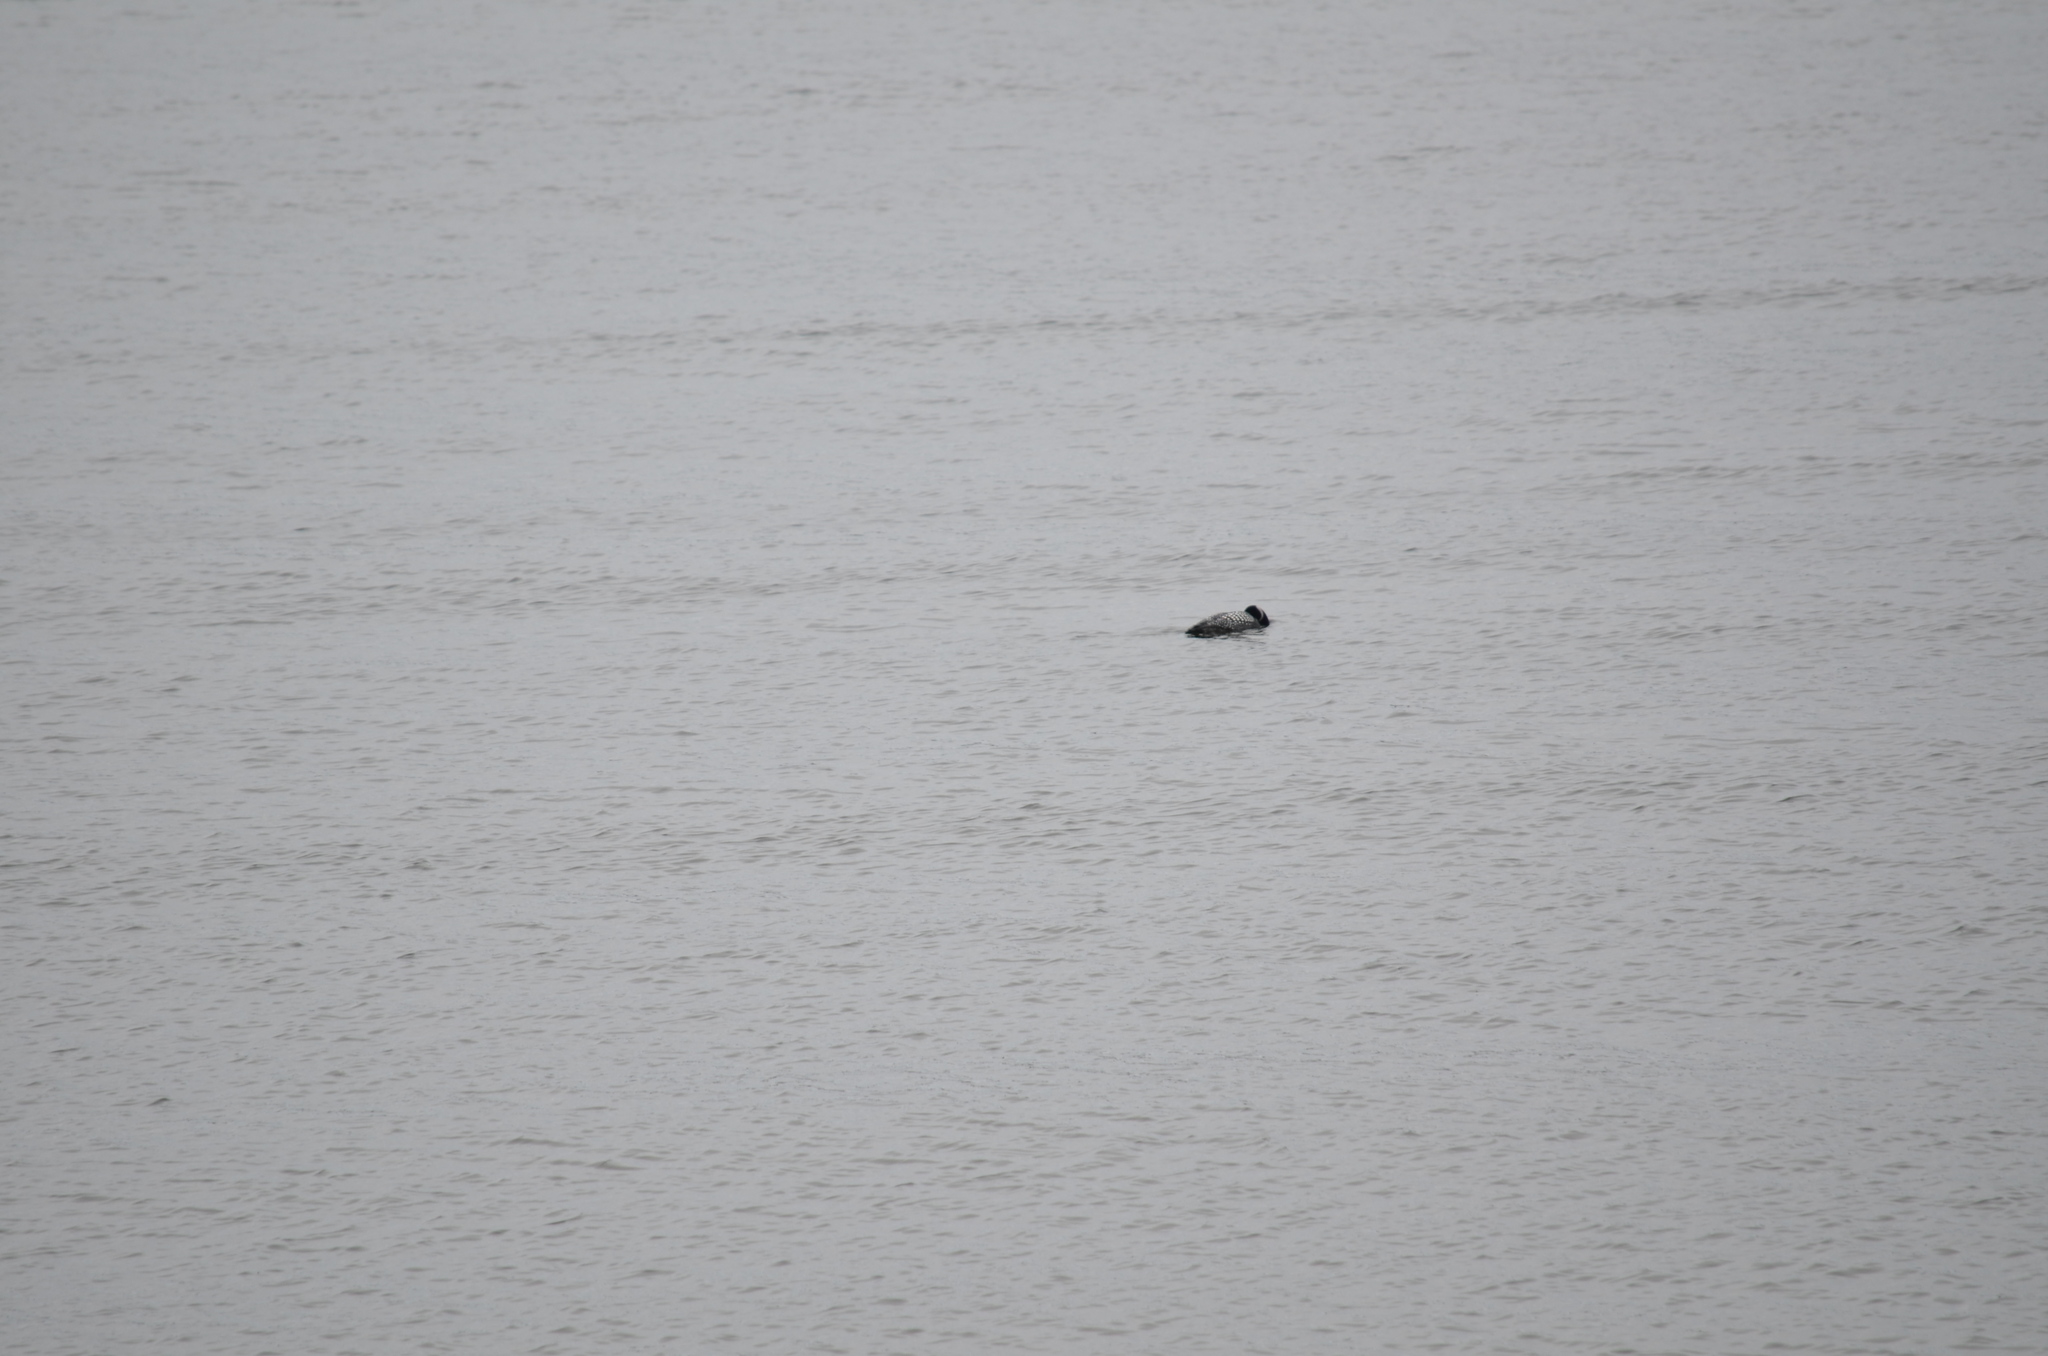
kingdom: Animalia
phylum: Chordata
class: Aves
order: Gaviiformes
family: Gaviidae
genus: Gavia
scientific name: Gavia immer
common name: Common loon
